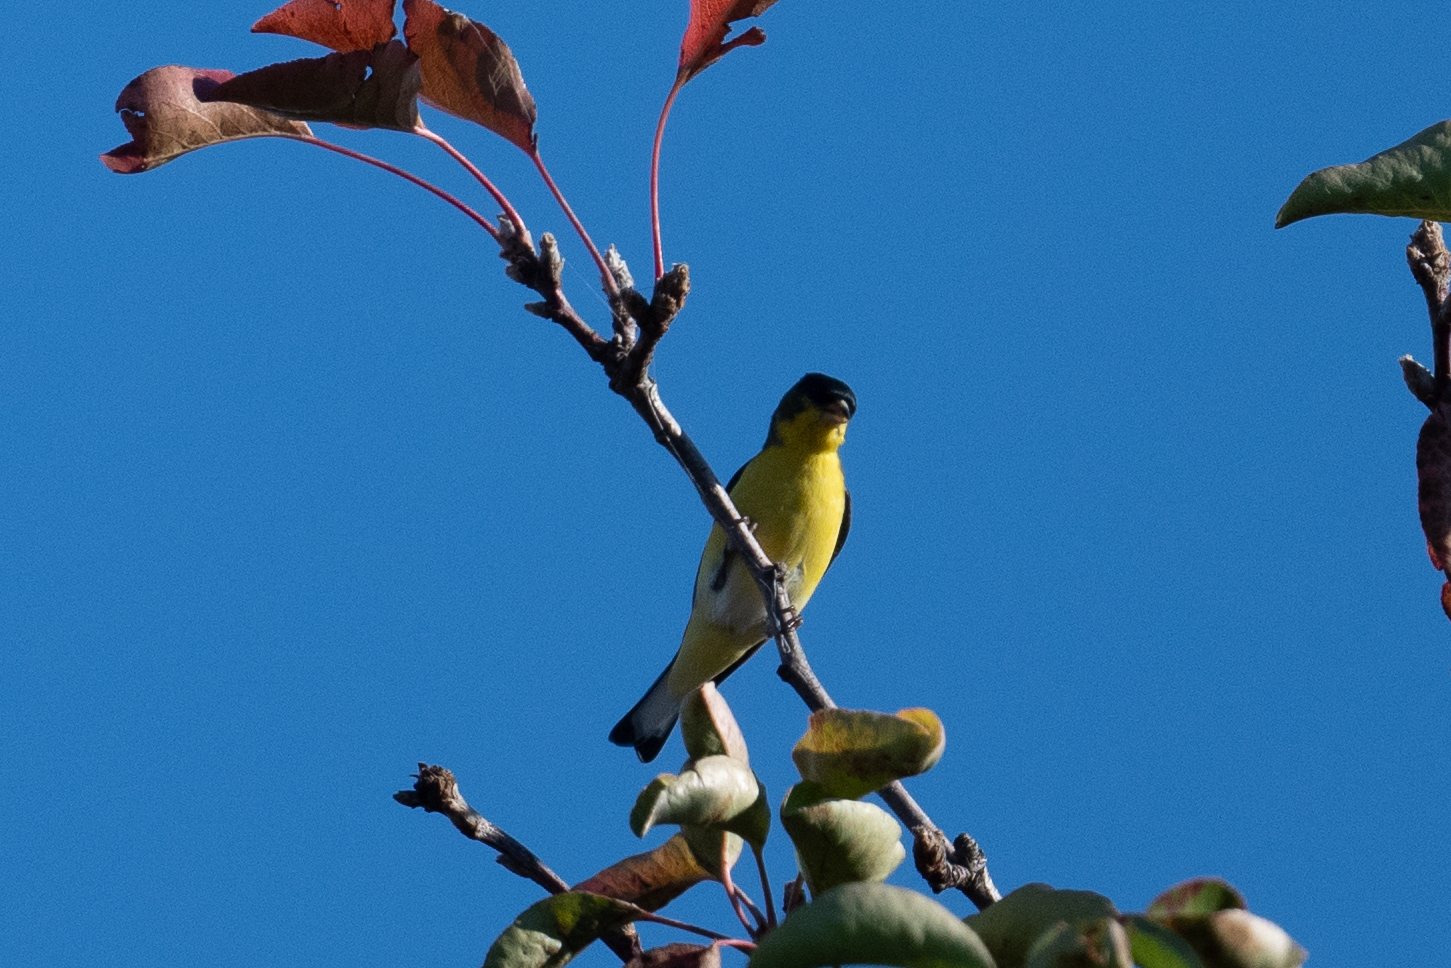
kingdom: Animalia
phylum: Chordata
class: Aves
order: Passeriformes
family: Fringillidae
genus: Spinus
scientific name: Spinus psaltria
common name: Lesser goldfinch
